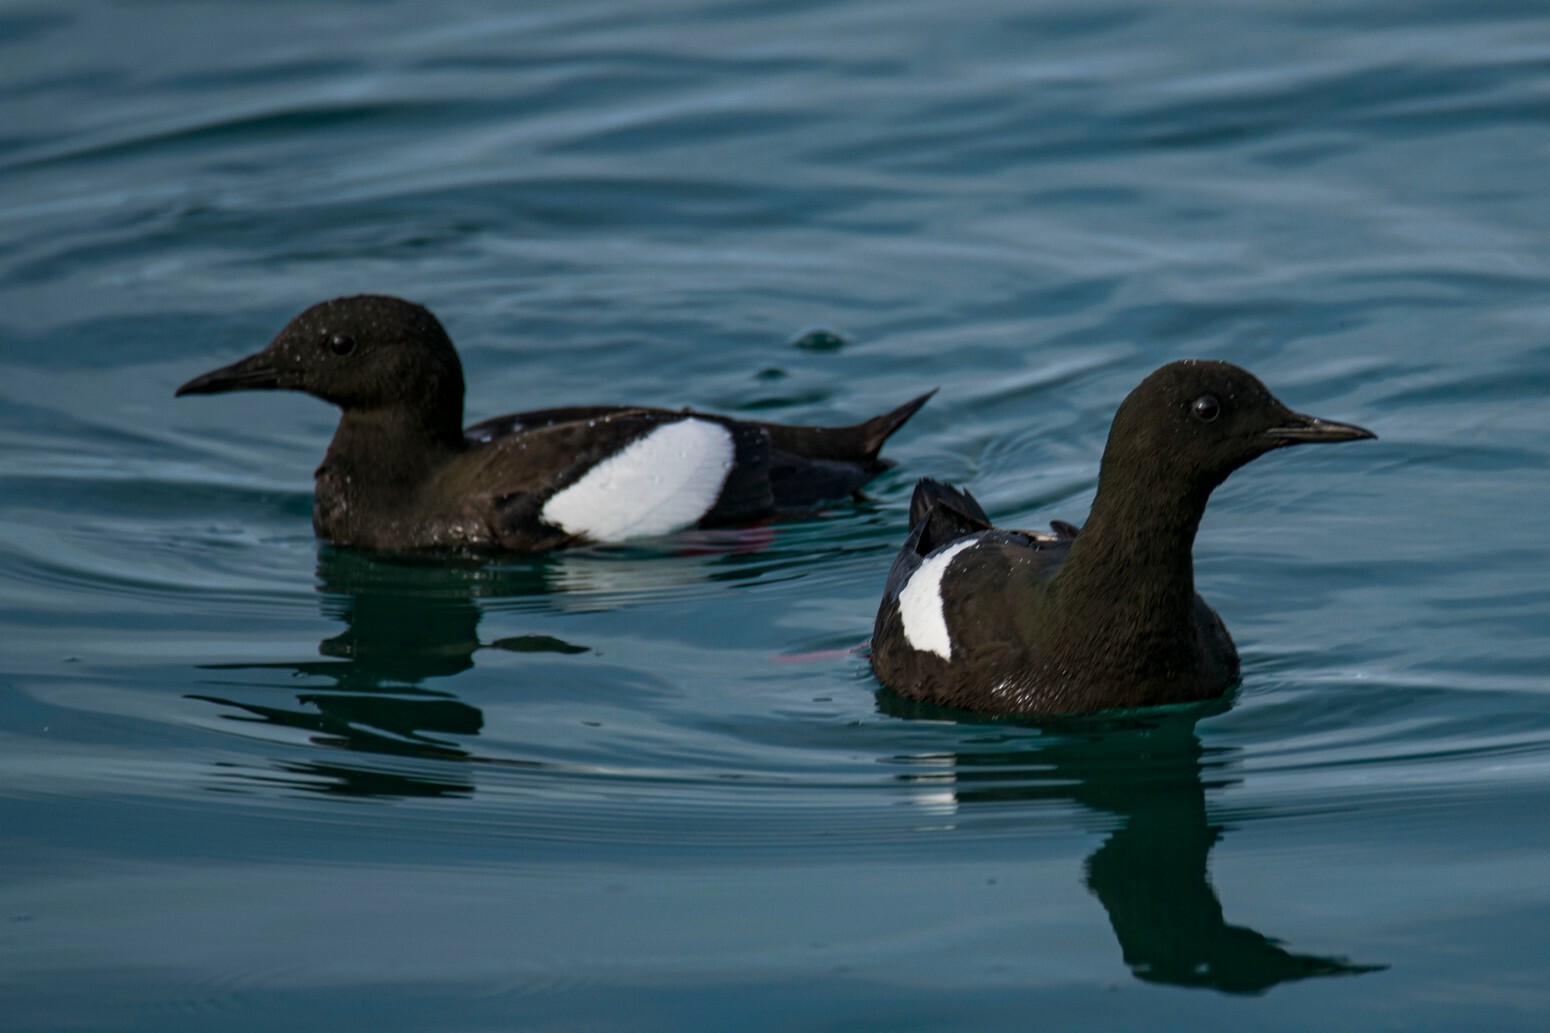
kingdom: Animalia
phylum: Chordata
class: Aves
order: Charadriiformes
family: Alcidae
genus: Cepphus
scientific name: Cepphus grylle
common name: Black guillemot
